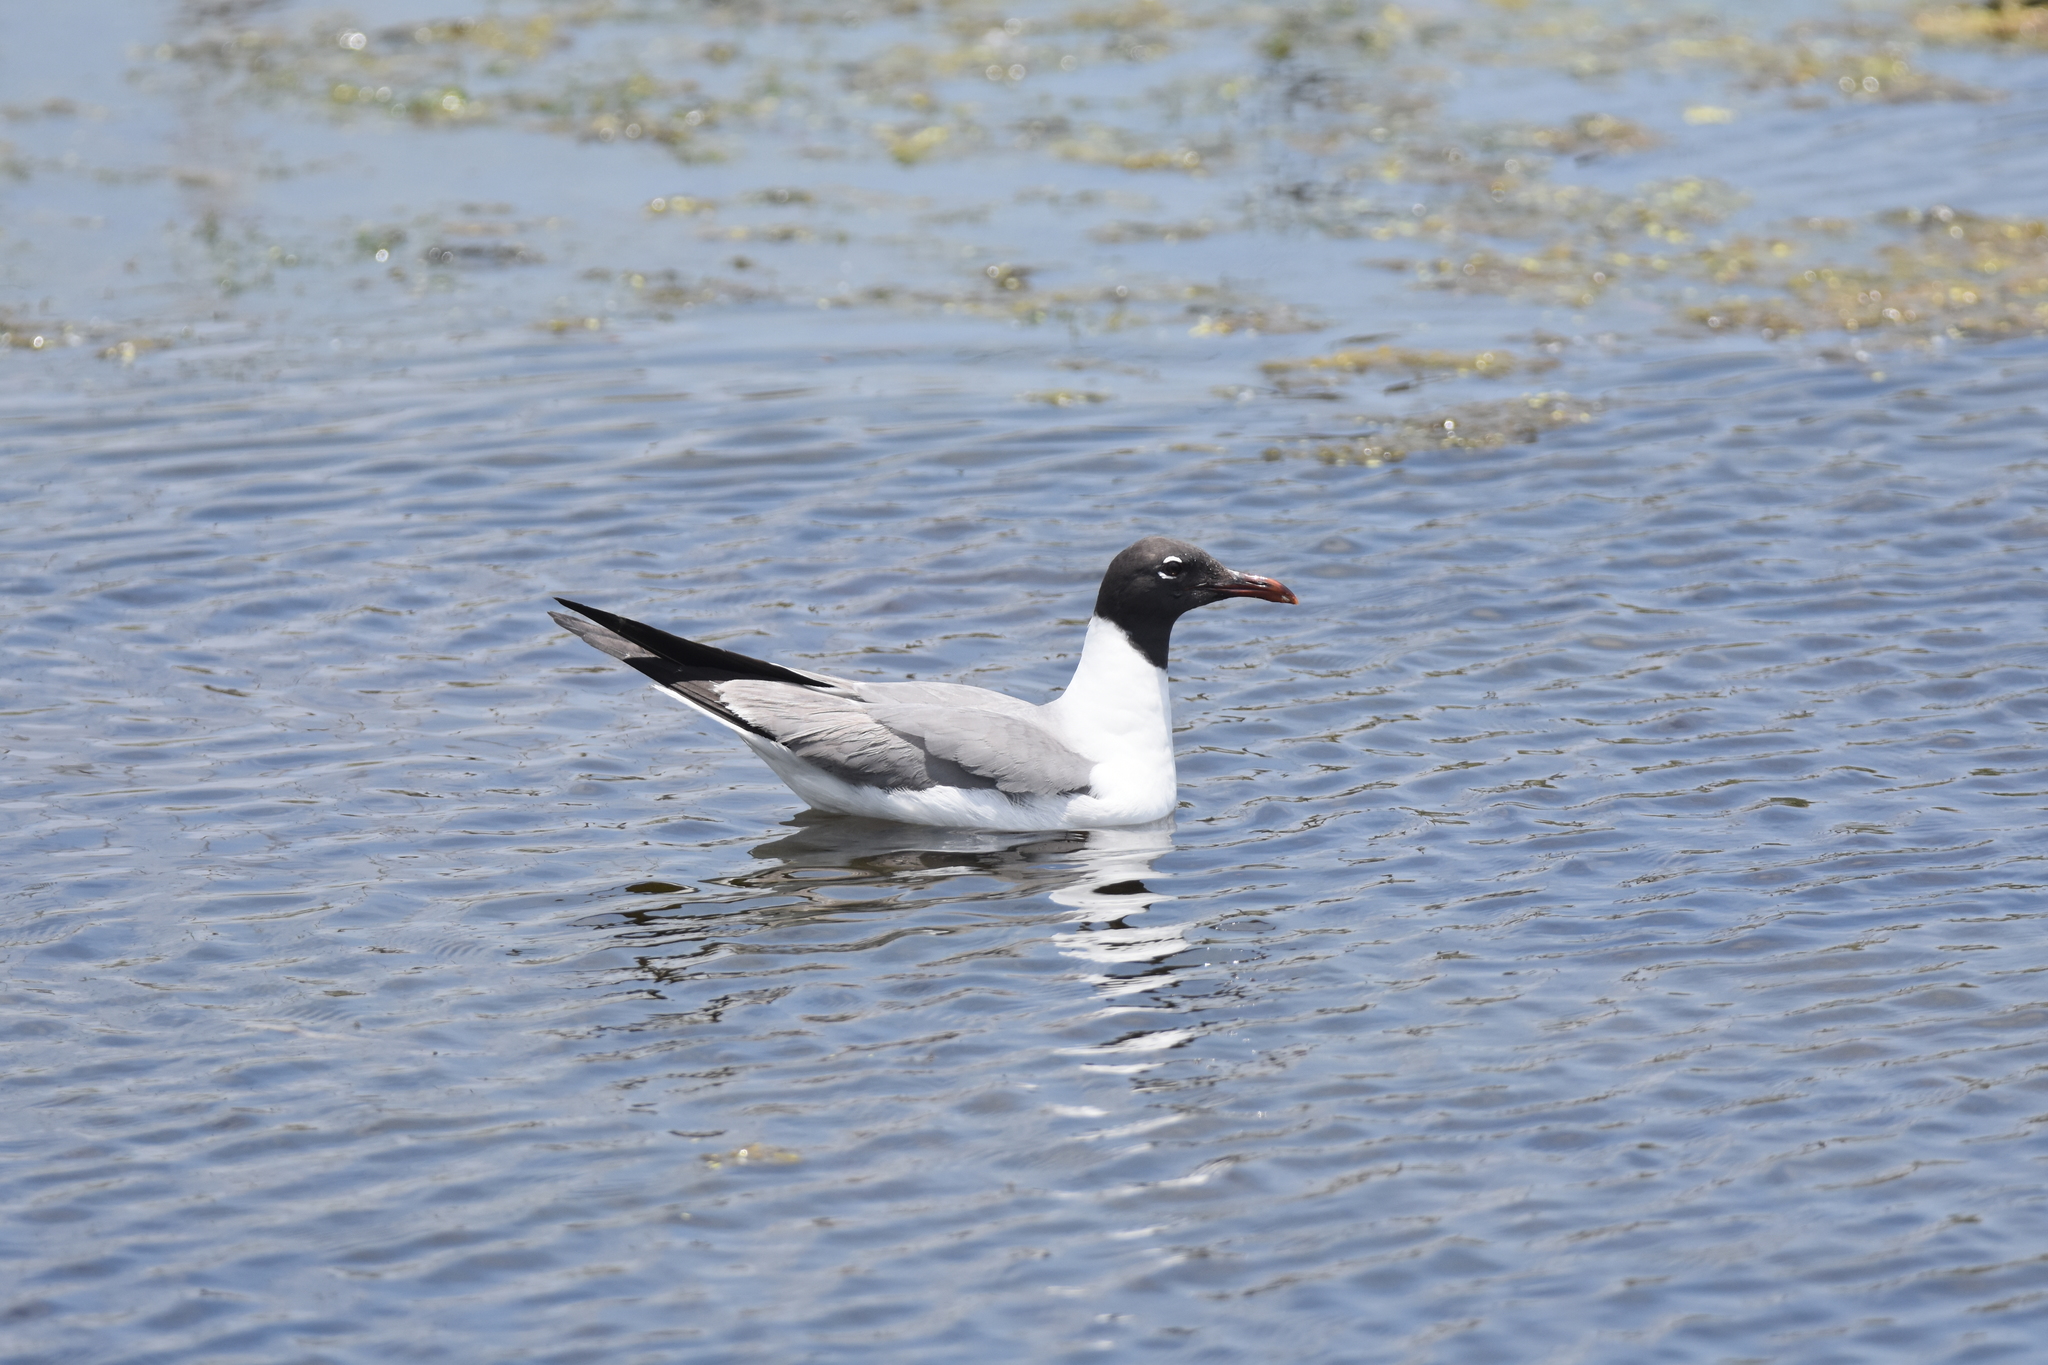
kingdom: Animalia
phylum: Chordata
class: Aves
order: Charadriiformes
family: Laridae
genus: Leucophaeus
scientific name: Leucophaeus atricilla
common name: Laughing gull
